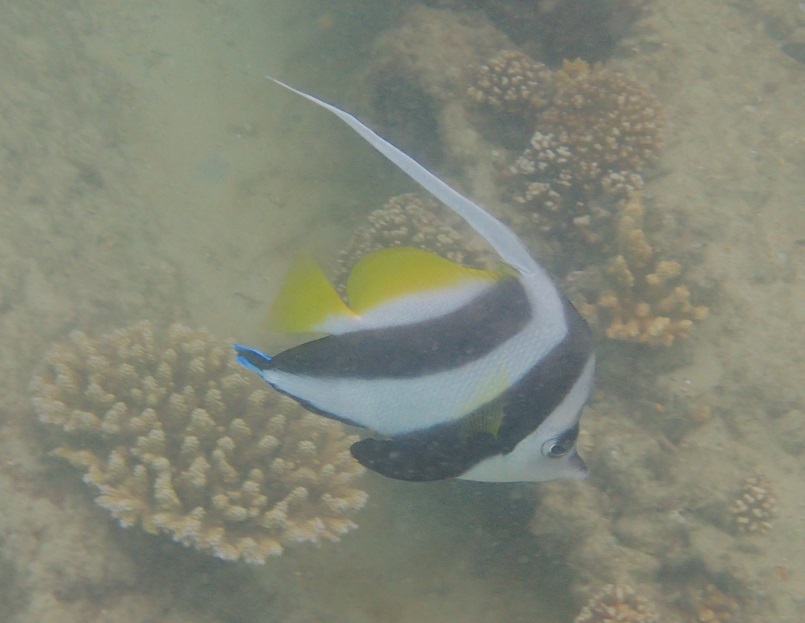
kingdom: Animalia
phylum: Chordata
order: Perciformes
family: Chaetodontidae
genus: Heniochus
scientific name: Heniochus acuminatus
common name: Pennant coralfish
